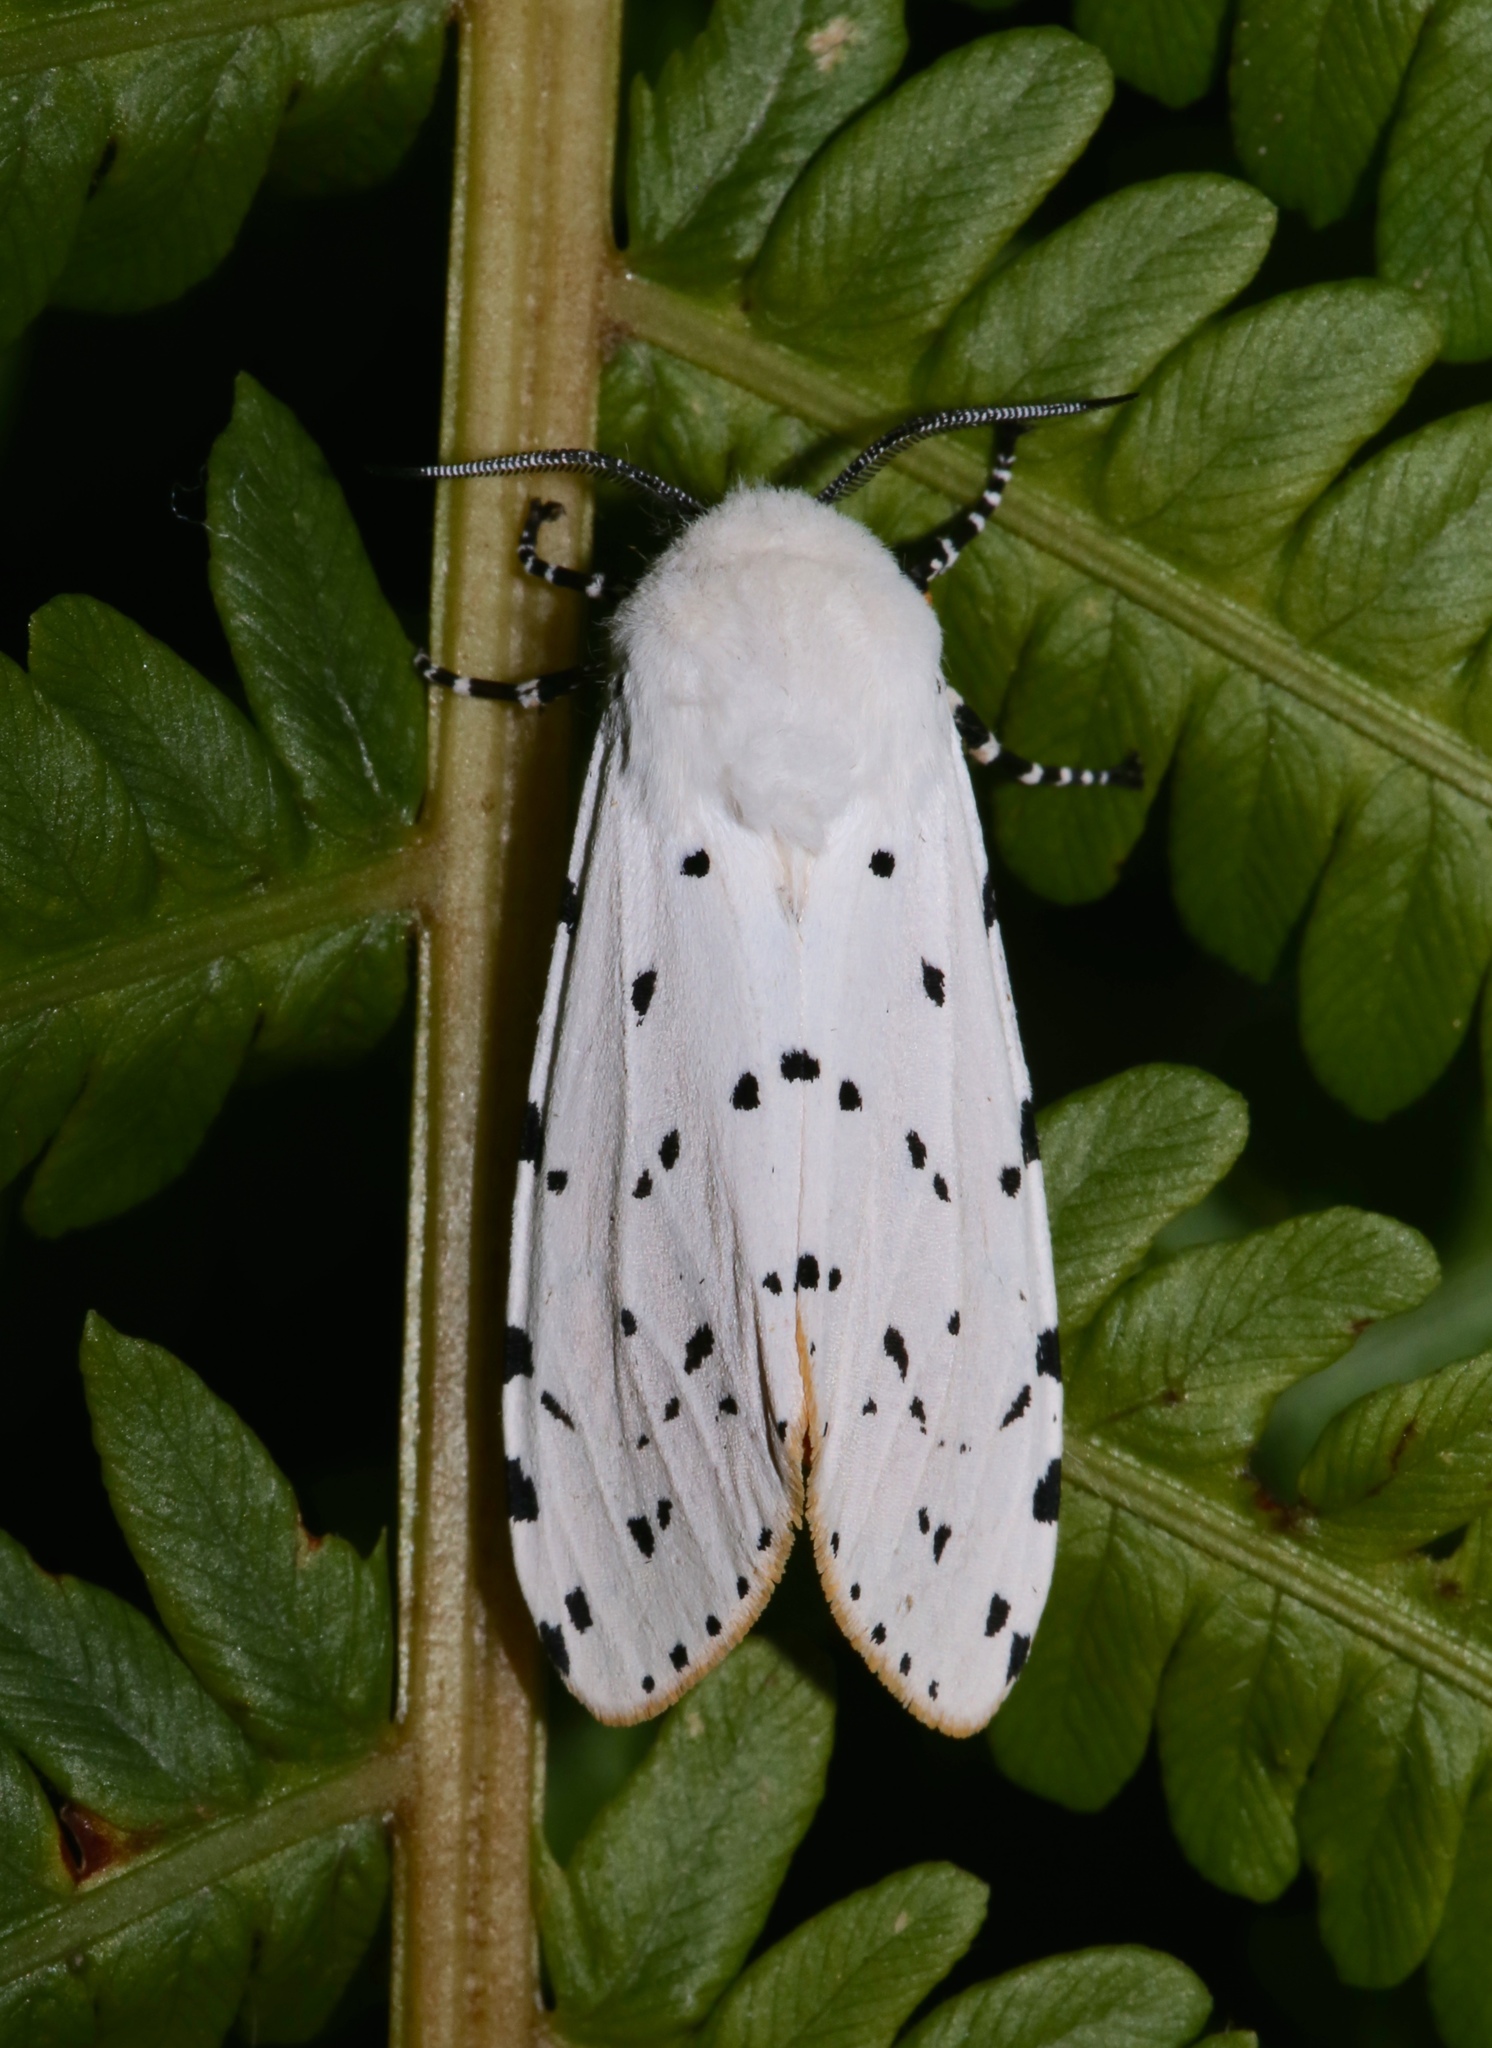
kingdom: Animalia
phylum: Arthropoda
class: Insecta
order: Lepidoptera
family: Erebidae
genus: Estigmene
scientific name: Estigmene acrea
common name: Salt marsh moth
